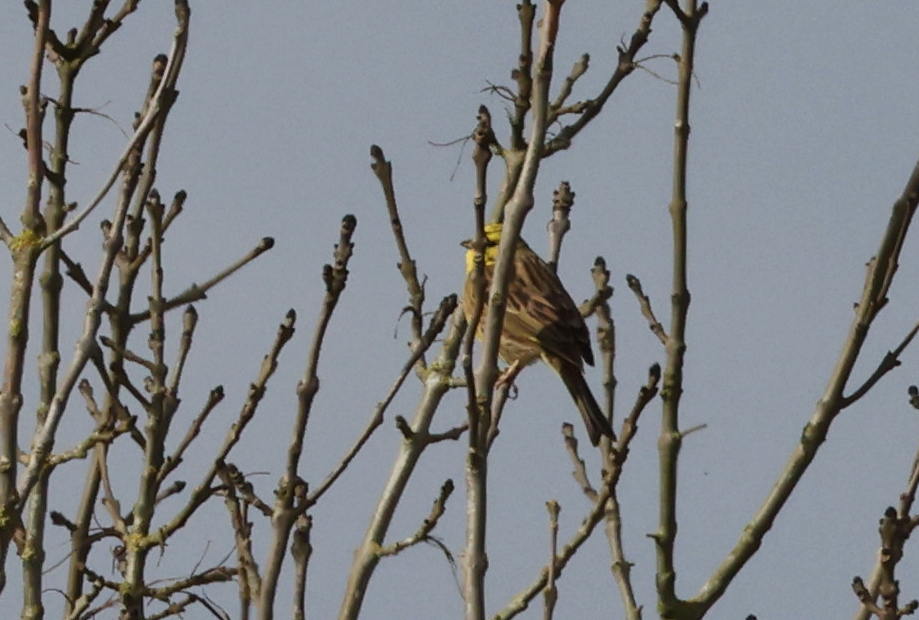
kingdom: Animalia
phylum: Chordata
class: Aves
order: Passeriformes
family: Emberizidae
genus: Emberiza
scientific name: Emberiza citrinella
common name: Yellowhammer
